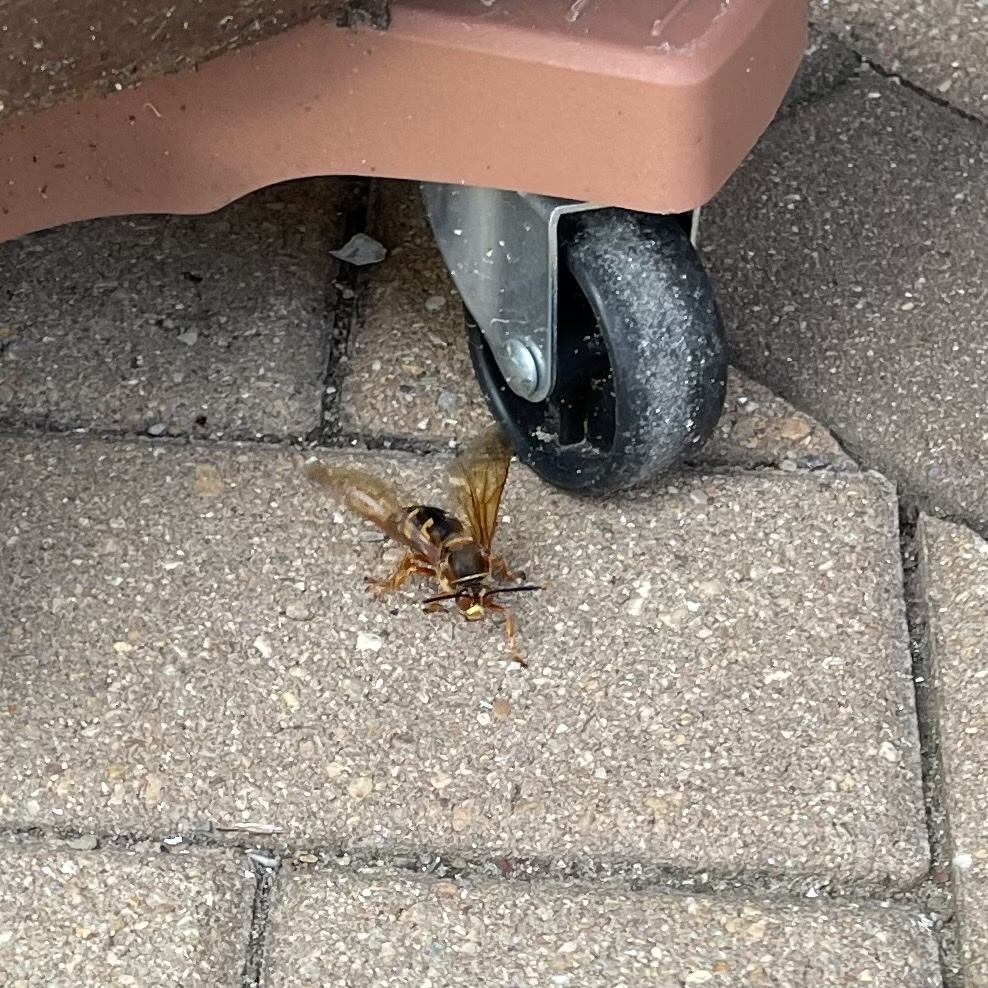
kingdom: Animalia
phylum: Arthropoda
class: Insecta
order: Hymenoptera
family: Crabronidae
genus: Sphecius
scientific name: Sphecius speciosus
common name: Cicada killer
